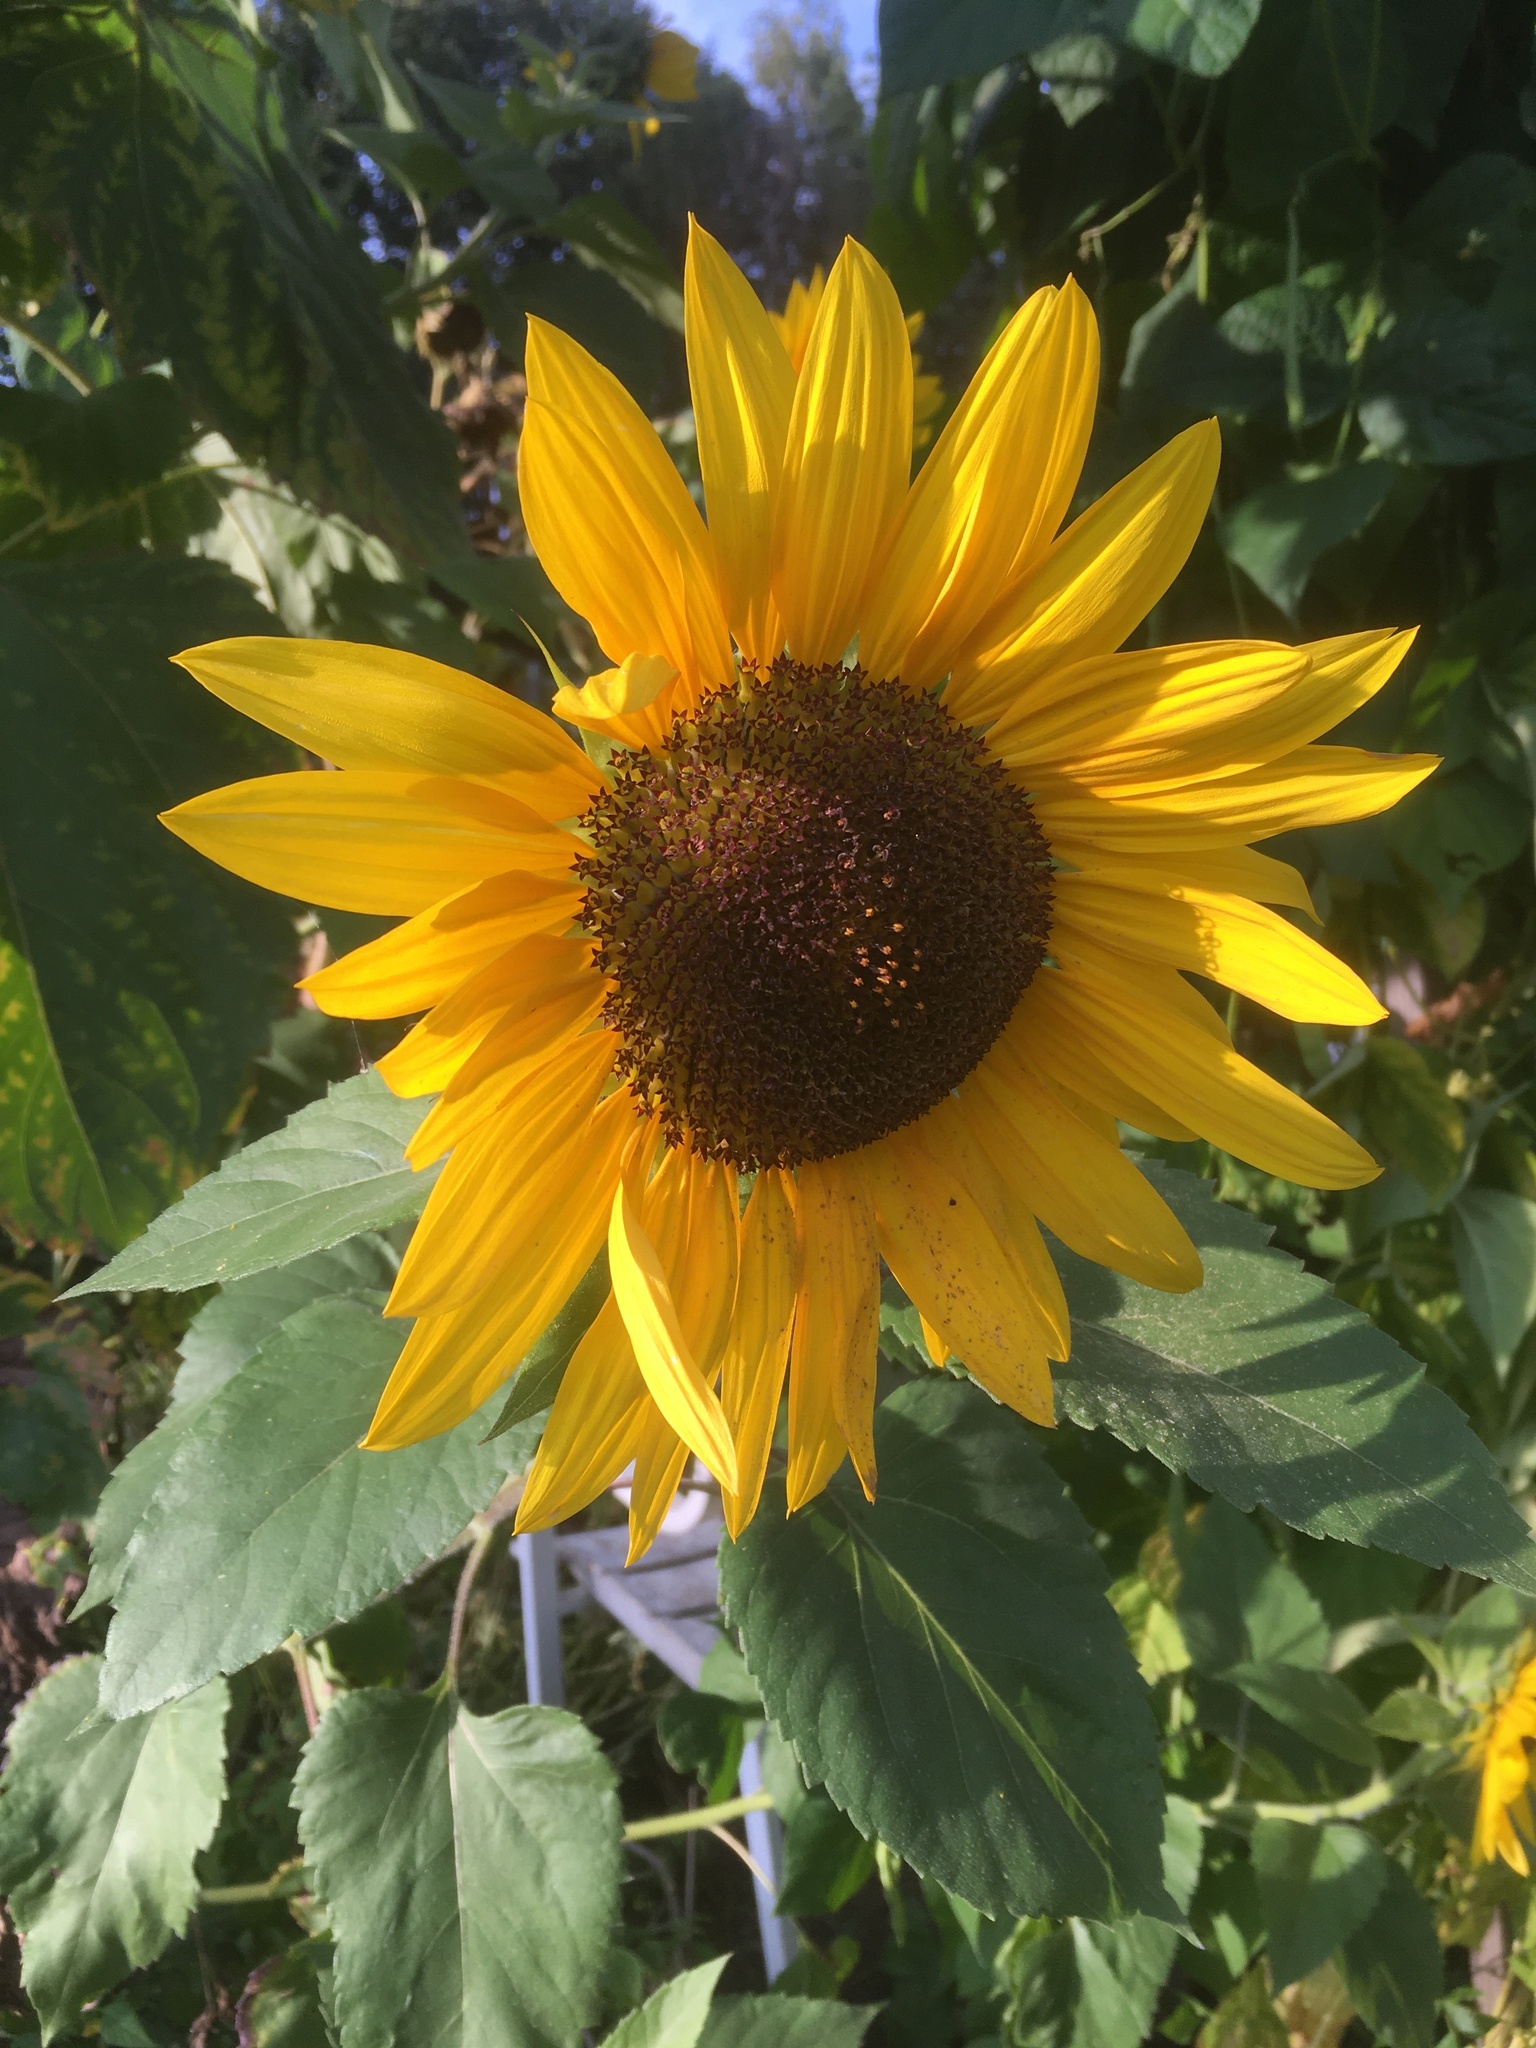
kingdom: Plantae
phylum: Tracheophyta
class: Magnoliopsida
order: Asterales
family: Asteraceae
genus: Helianthus
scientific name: Helianthus annuus
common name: Sunflower
